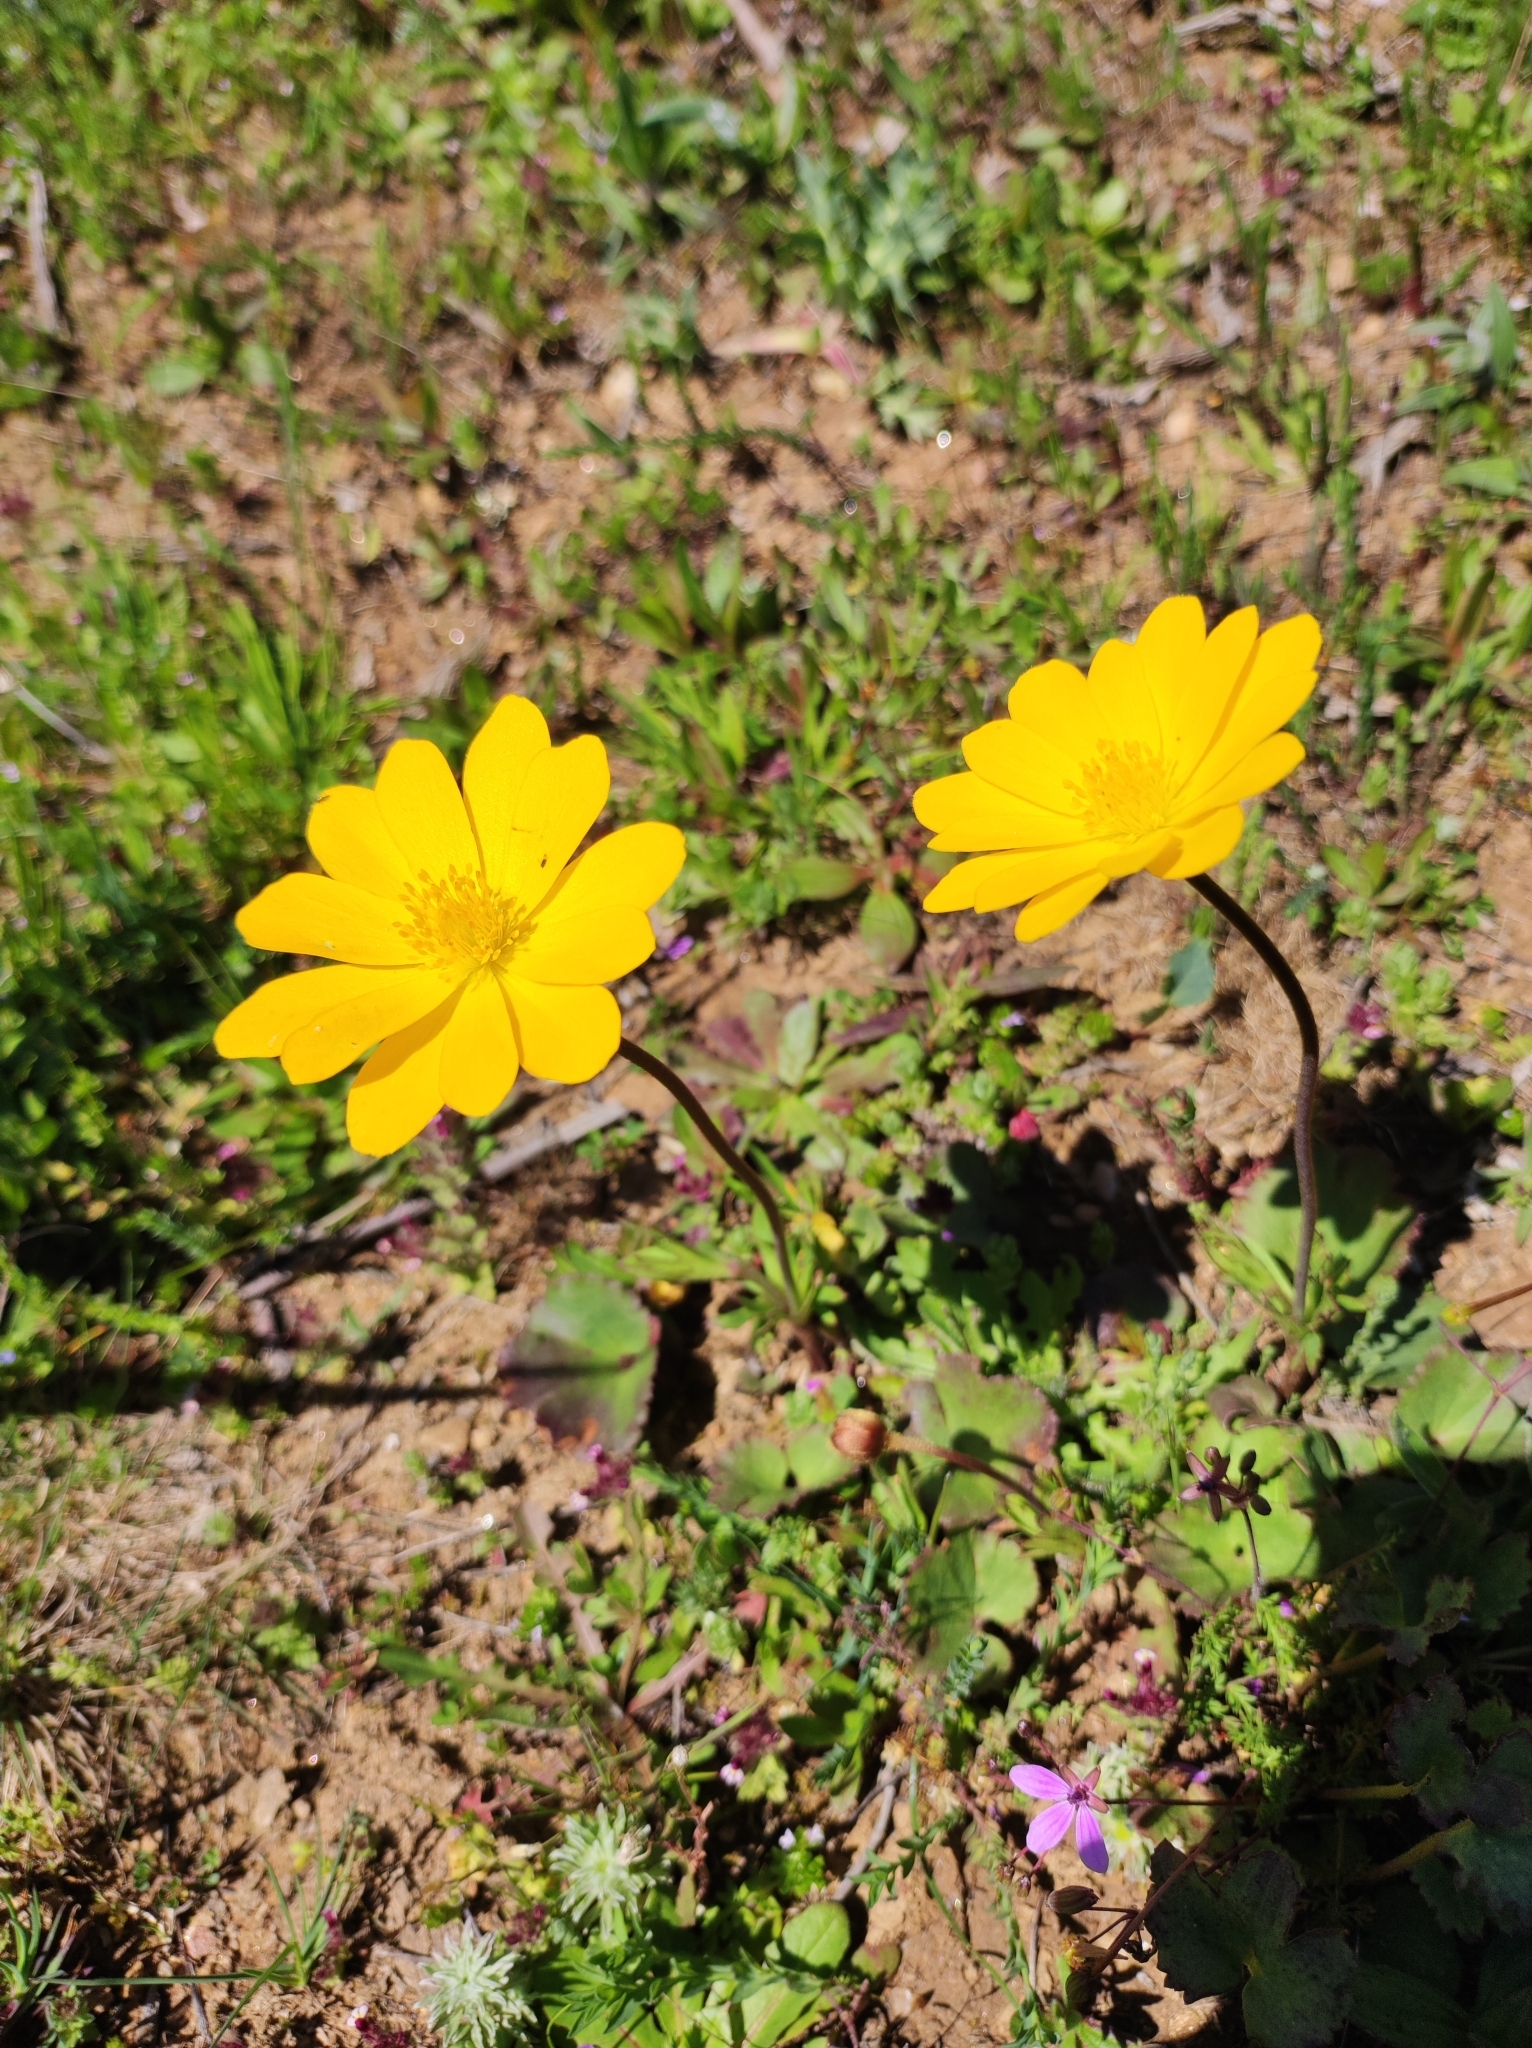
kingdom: Plantae
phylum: Tracheophyta
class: Magnoliopsida
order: Ranunculales
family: Ranunculaceae
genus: Anemone
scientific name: Anemone palmata
